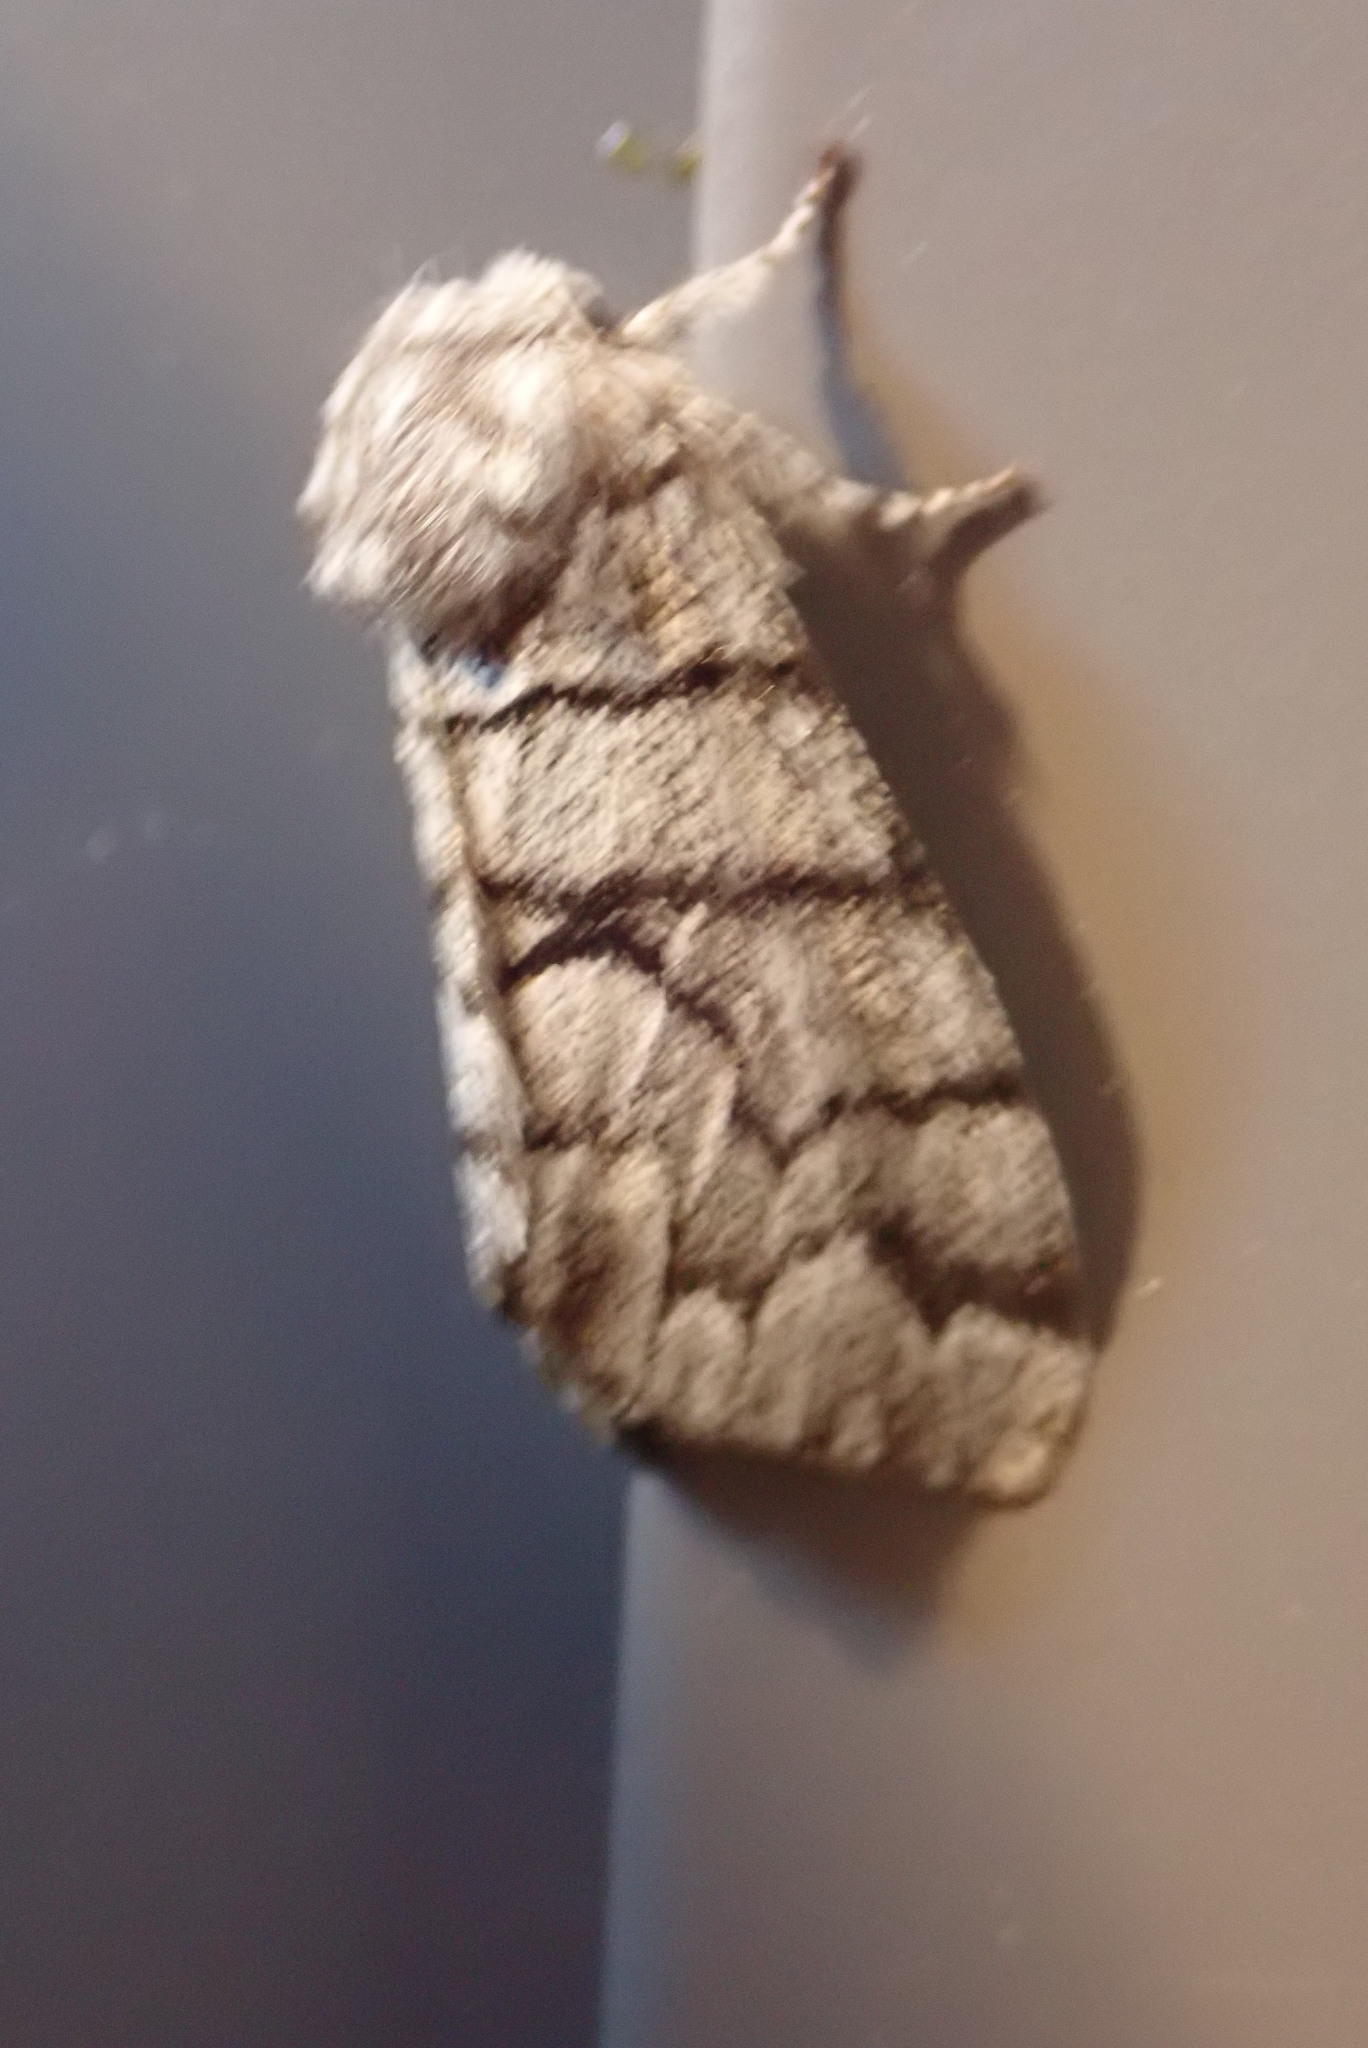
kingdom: Animalia
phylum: Arthropoda
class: Insecta
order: Lepidoptera
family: Noctuidae
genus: Panthea
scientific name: Panthea furcilla
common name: Eastern panthea moth
